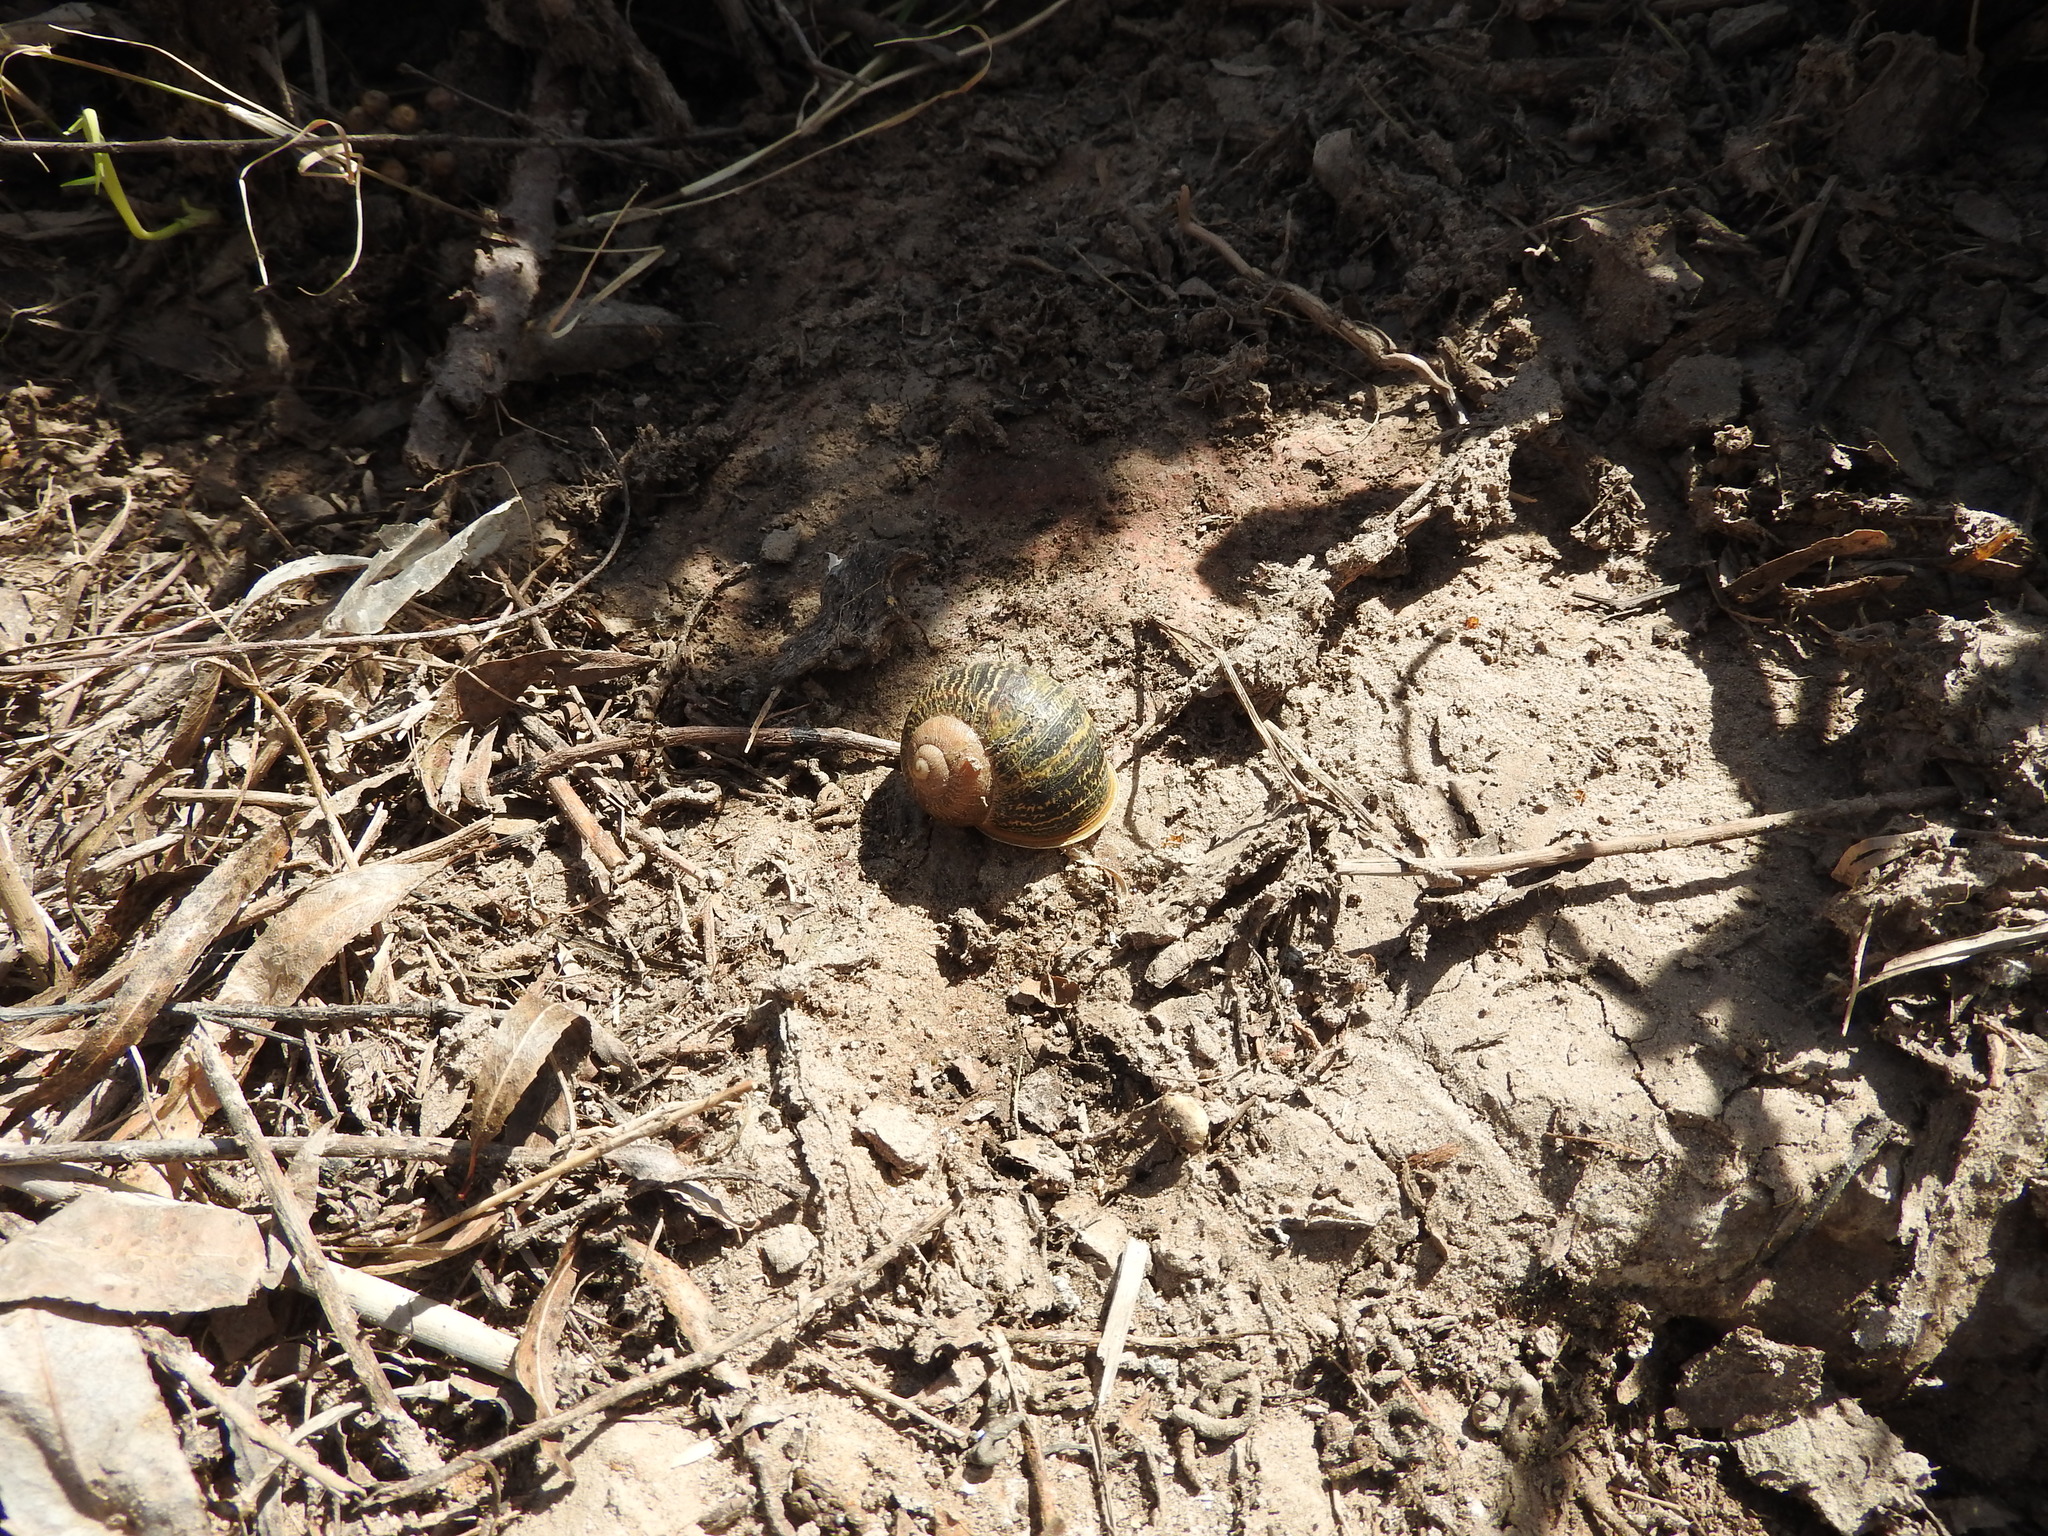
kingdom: Animalia
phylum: Mollusca
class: Gastropoda
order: Stylommatophora
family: Helicidae
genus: Cornu
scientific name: Cornu aspersum
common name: Brown garden snail
